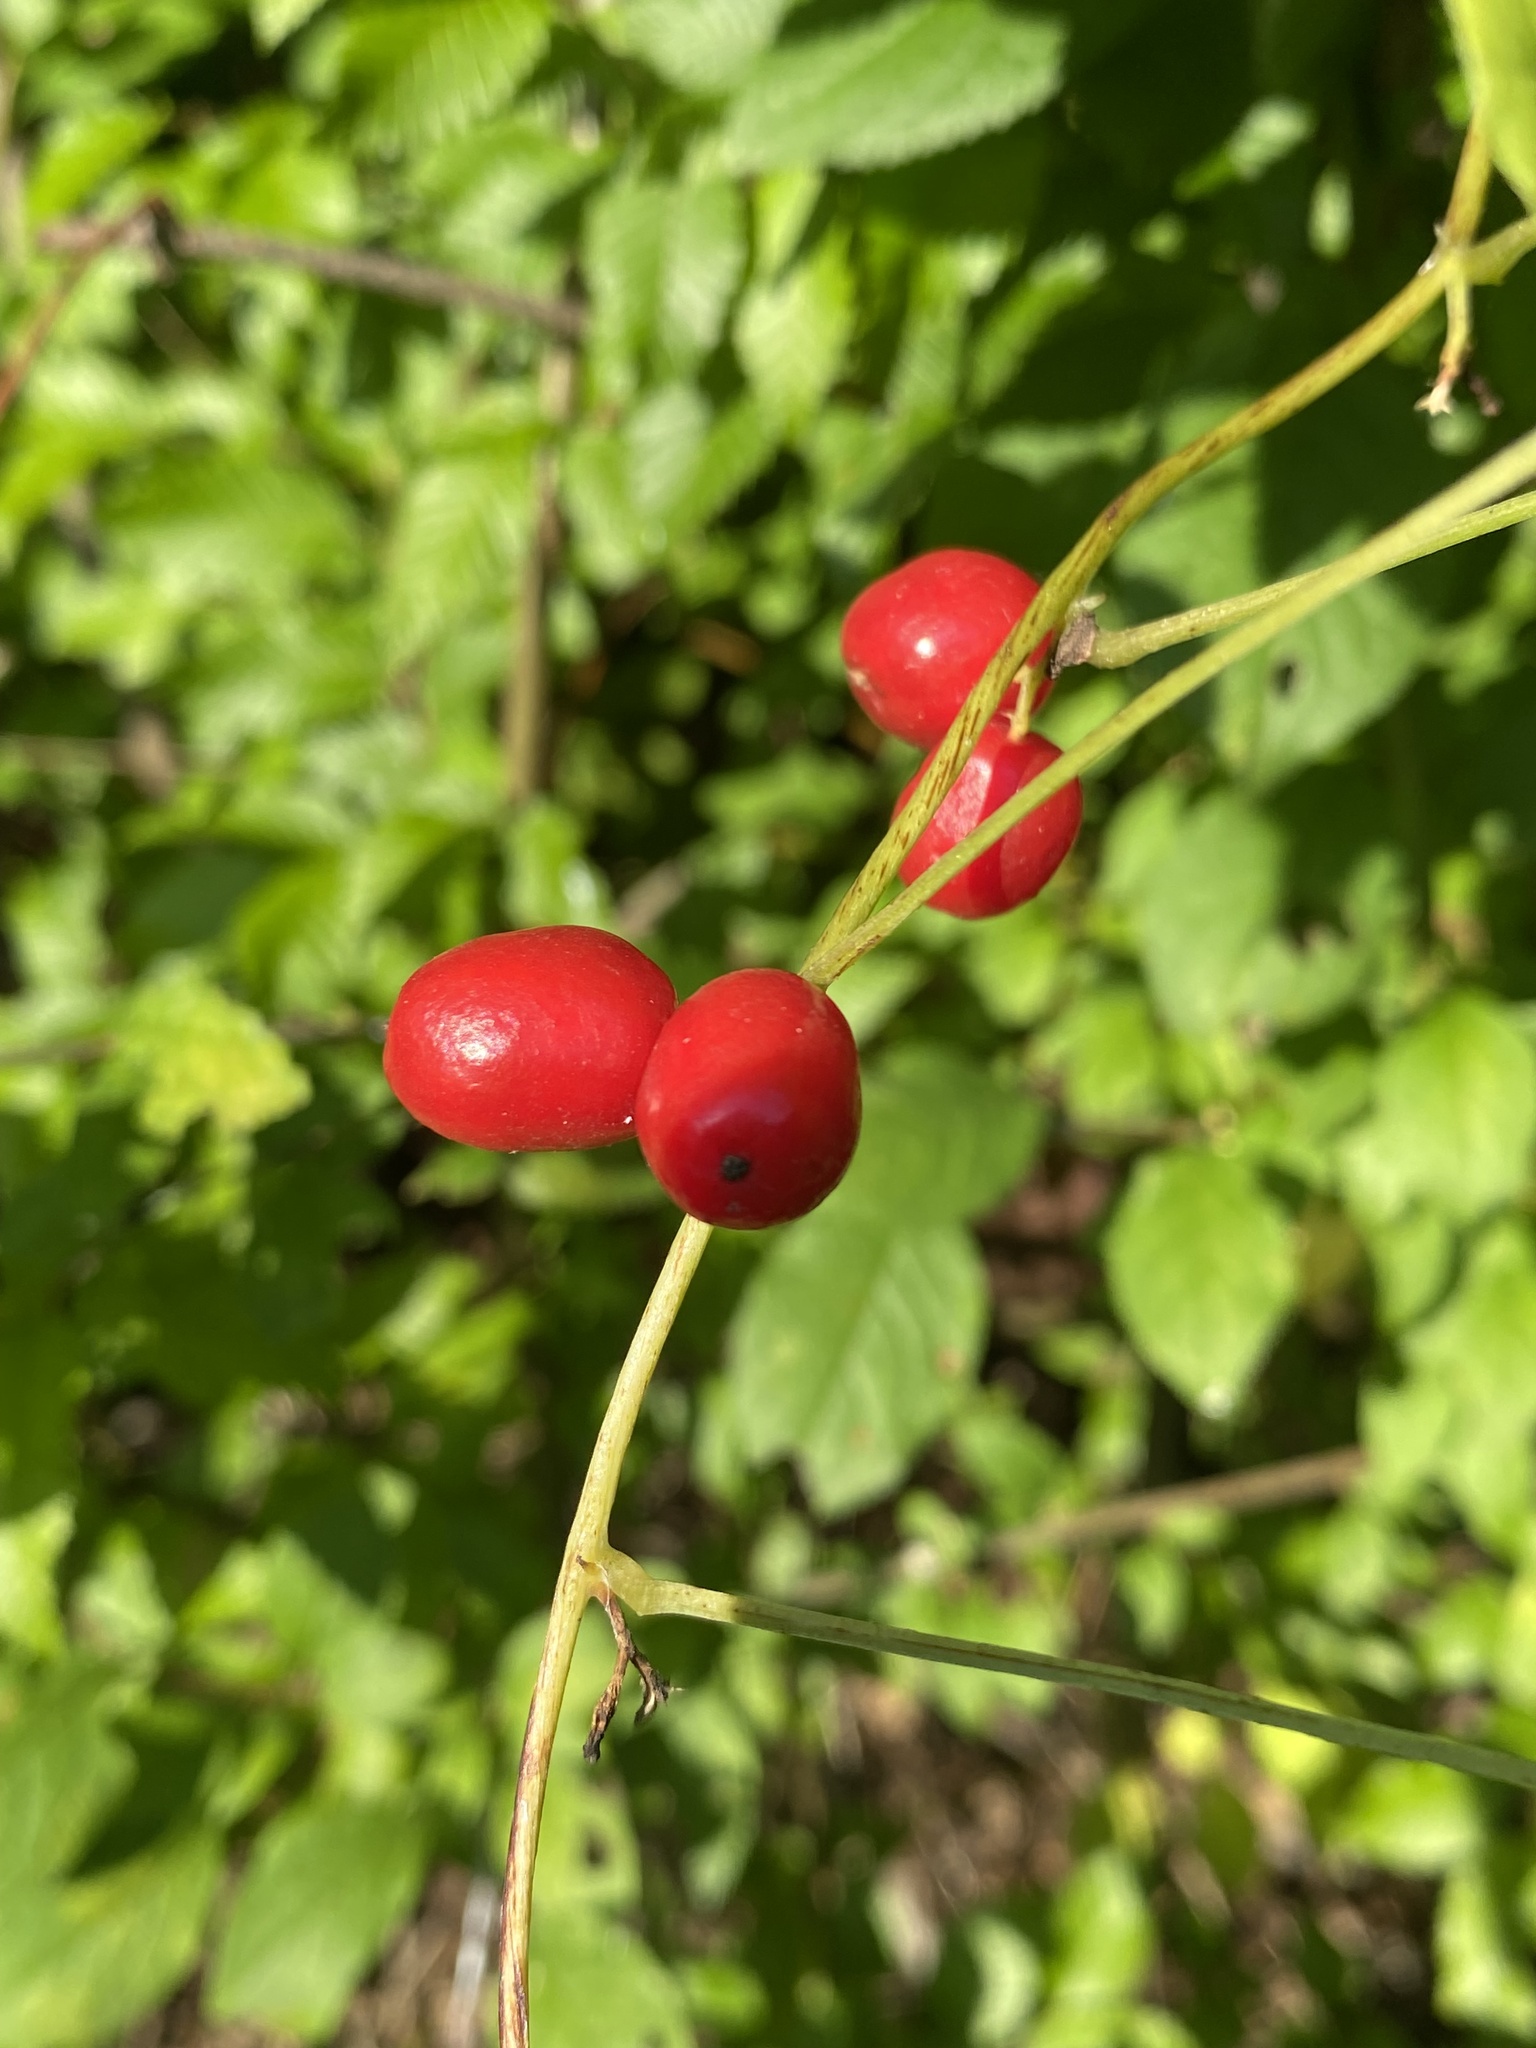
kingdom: Plantae
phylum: Tracheophyta
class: Liliopsida
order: Dioscoreales
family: Dioscoreaceae
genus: Dioscorea
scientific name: Dioscorea communis
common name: Black-bindweed
